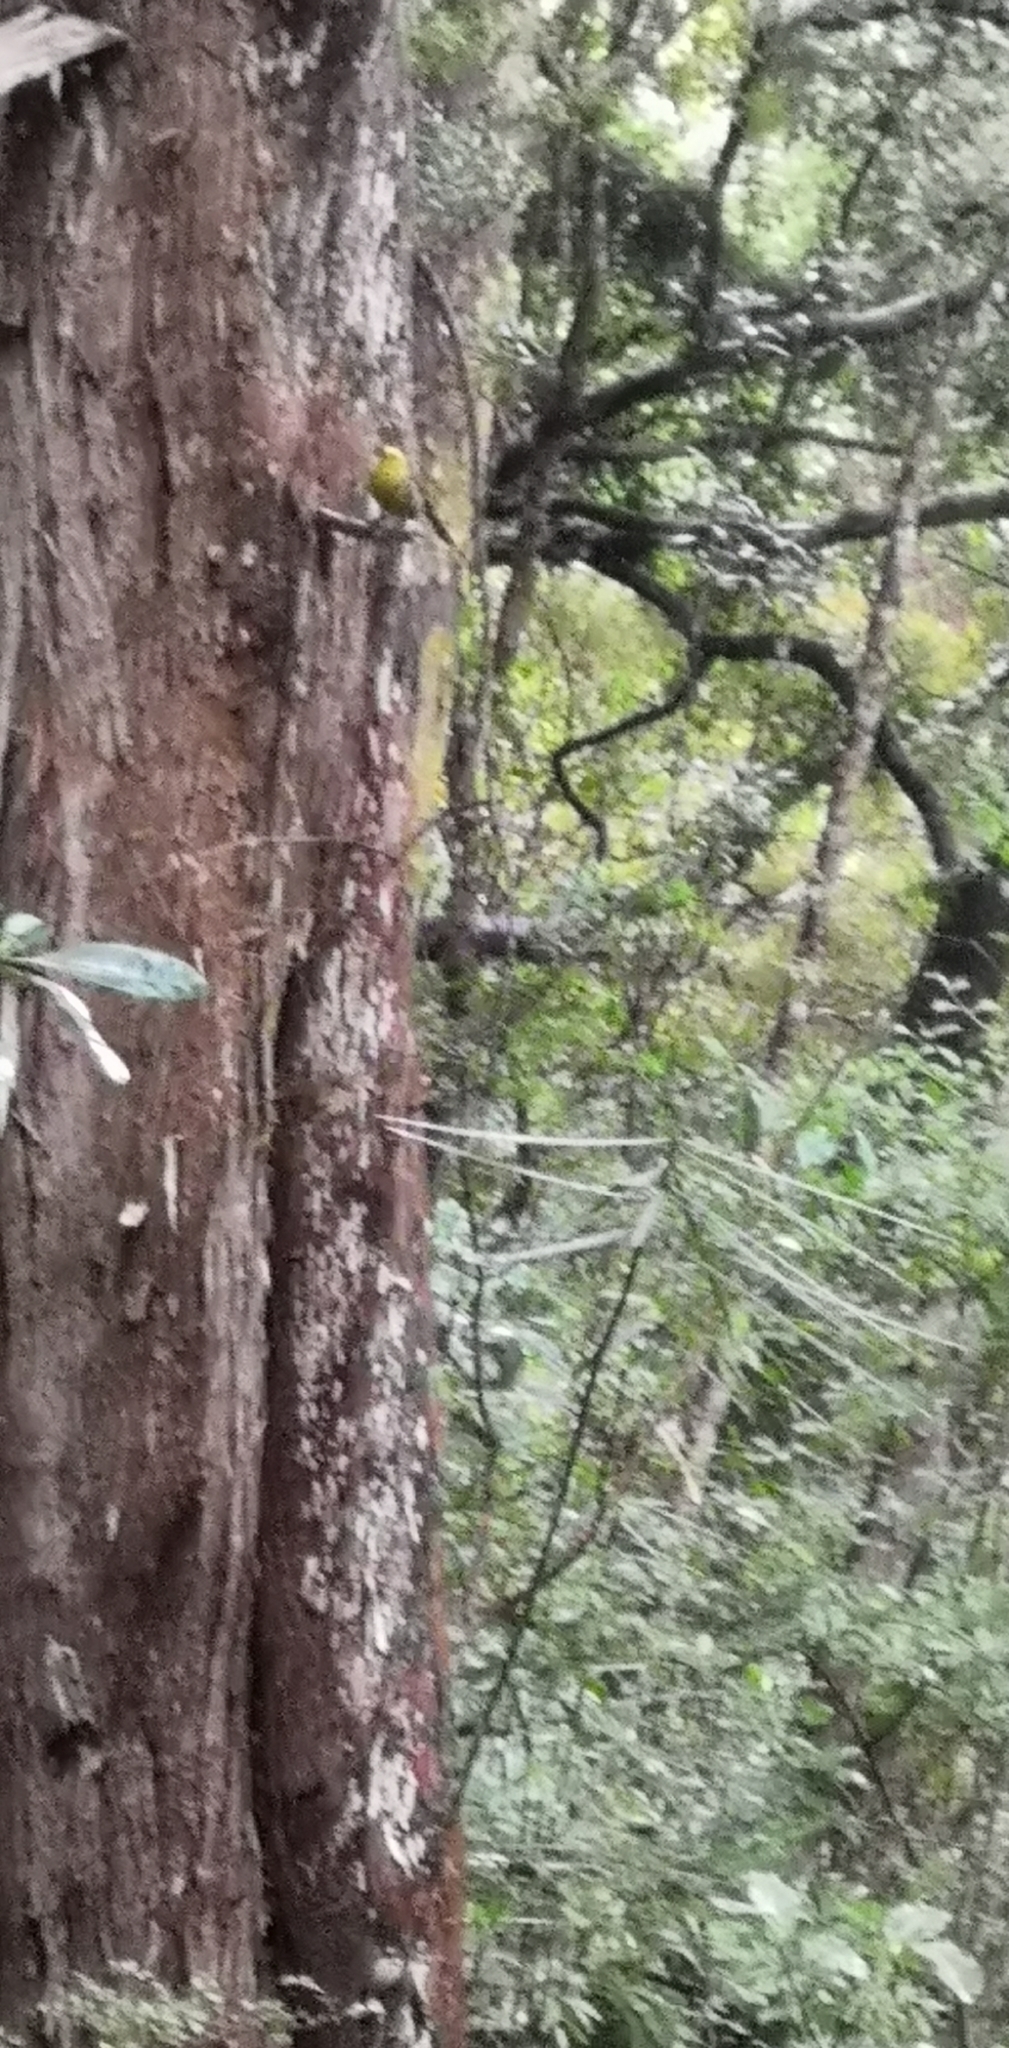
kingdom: Animalia
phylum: Chordata
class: Aves
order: Passeriformes
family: Acanthizidae
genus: Mohoua
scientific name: Mohoua ochrocephala
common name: Yellowhead
